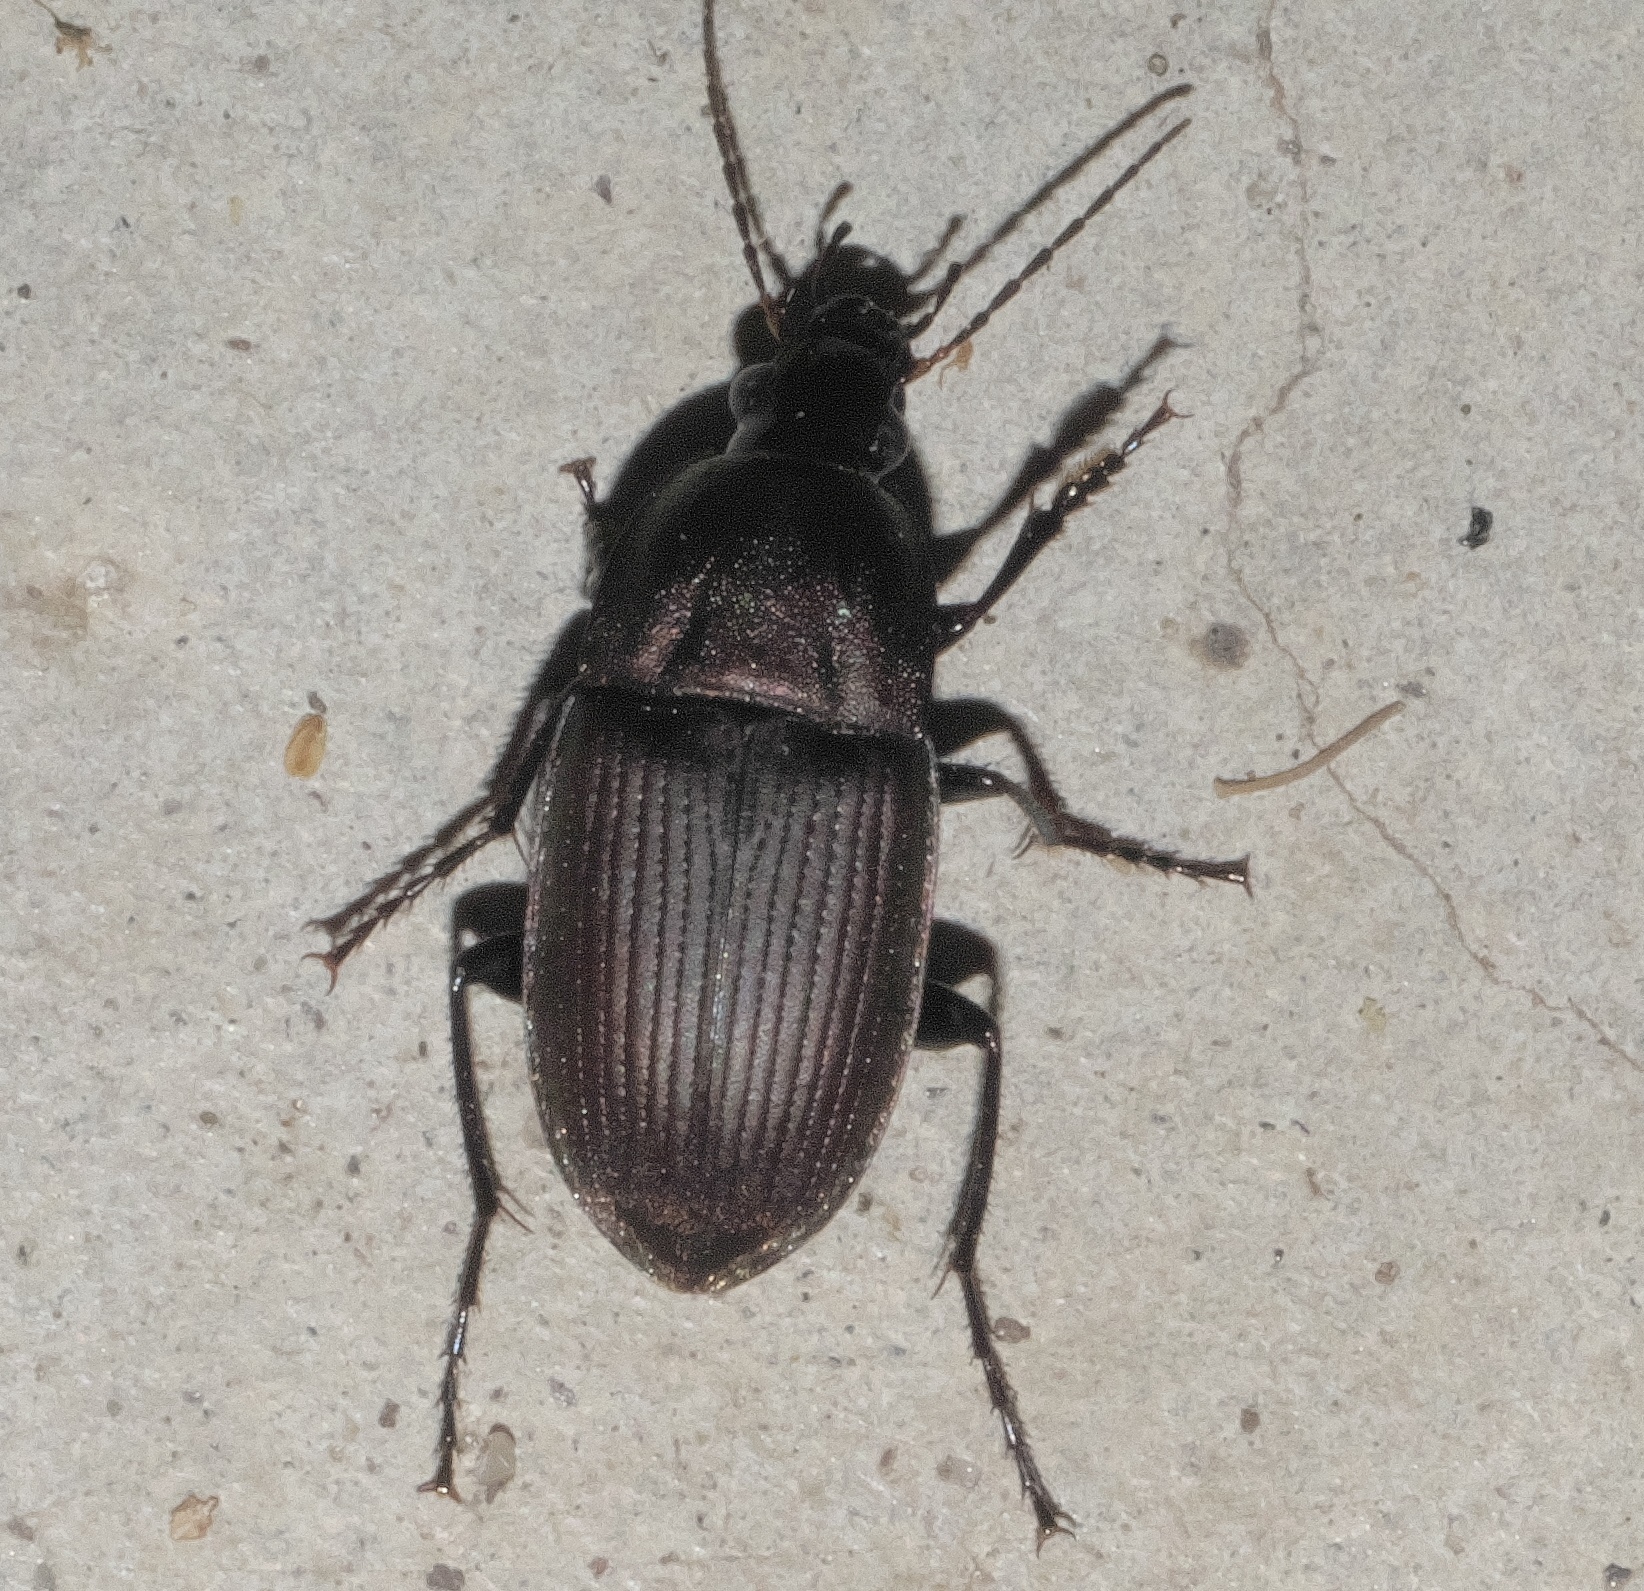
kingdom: Animalia
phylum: Arthropoda
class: Insecta
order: Coleoptera
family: Carabidae
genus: Chlaenius
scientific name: Chlaenius tomentosus
